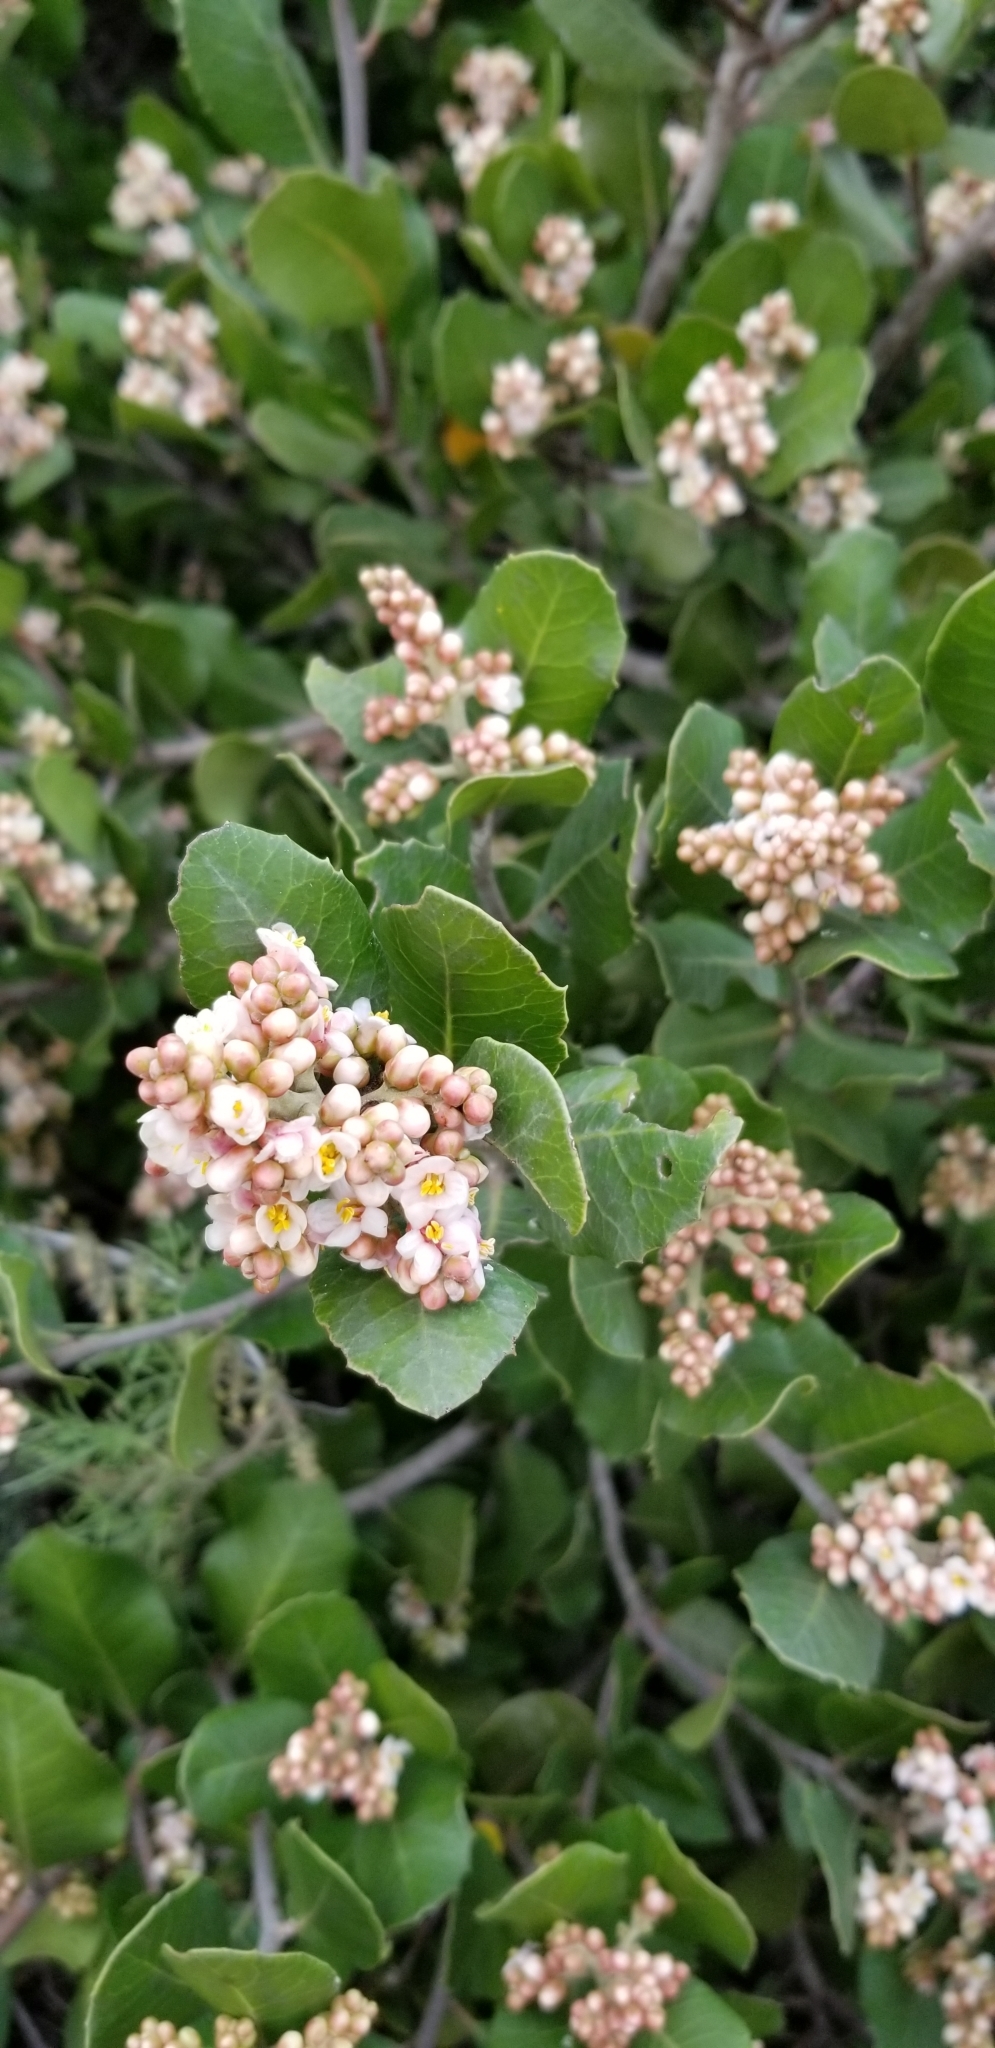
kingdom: Plantae
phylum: Tracheophyta
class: Magnoliopsida
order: Sapindales
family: Anacardiaceae
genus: Rhus
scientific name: Rhus integrifolia
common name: Lemonade sumac
